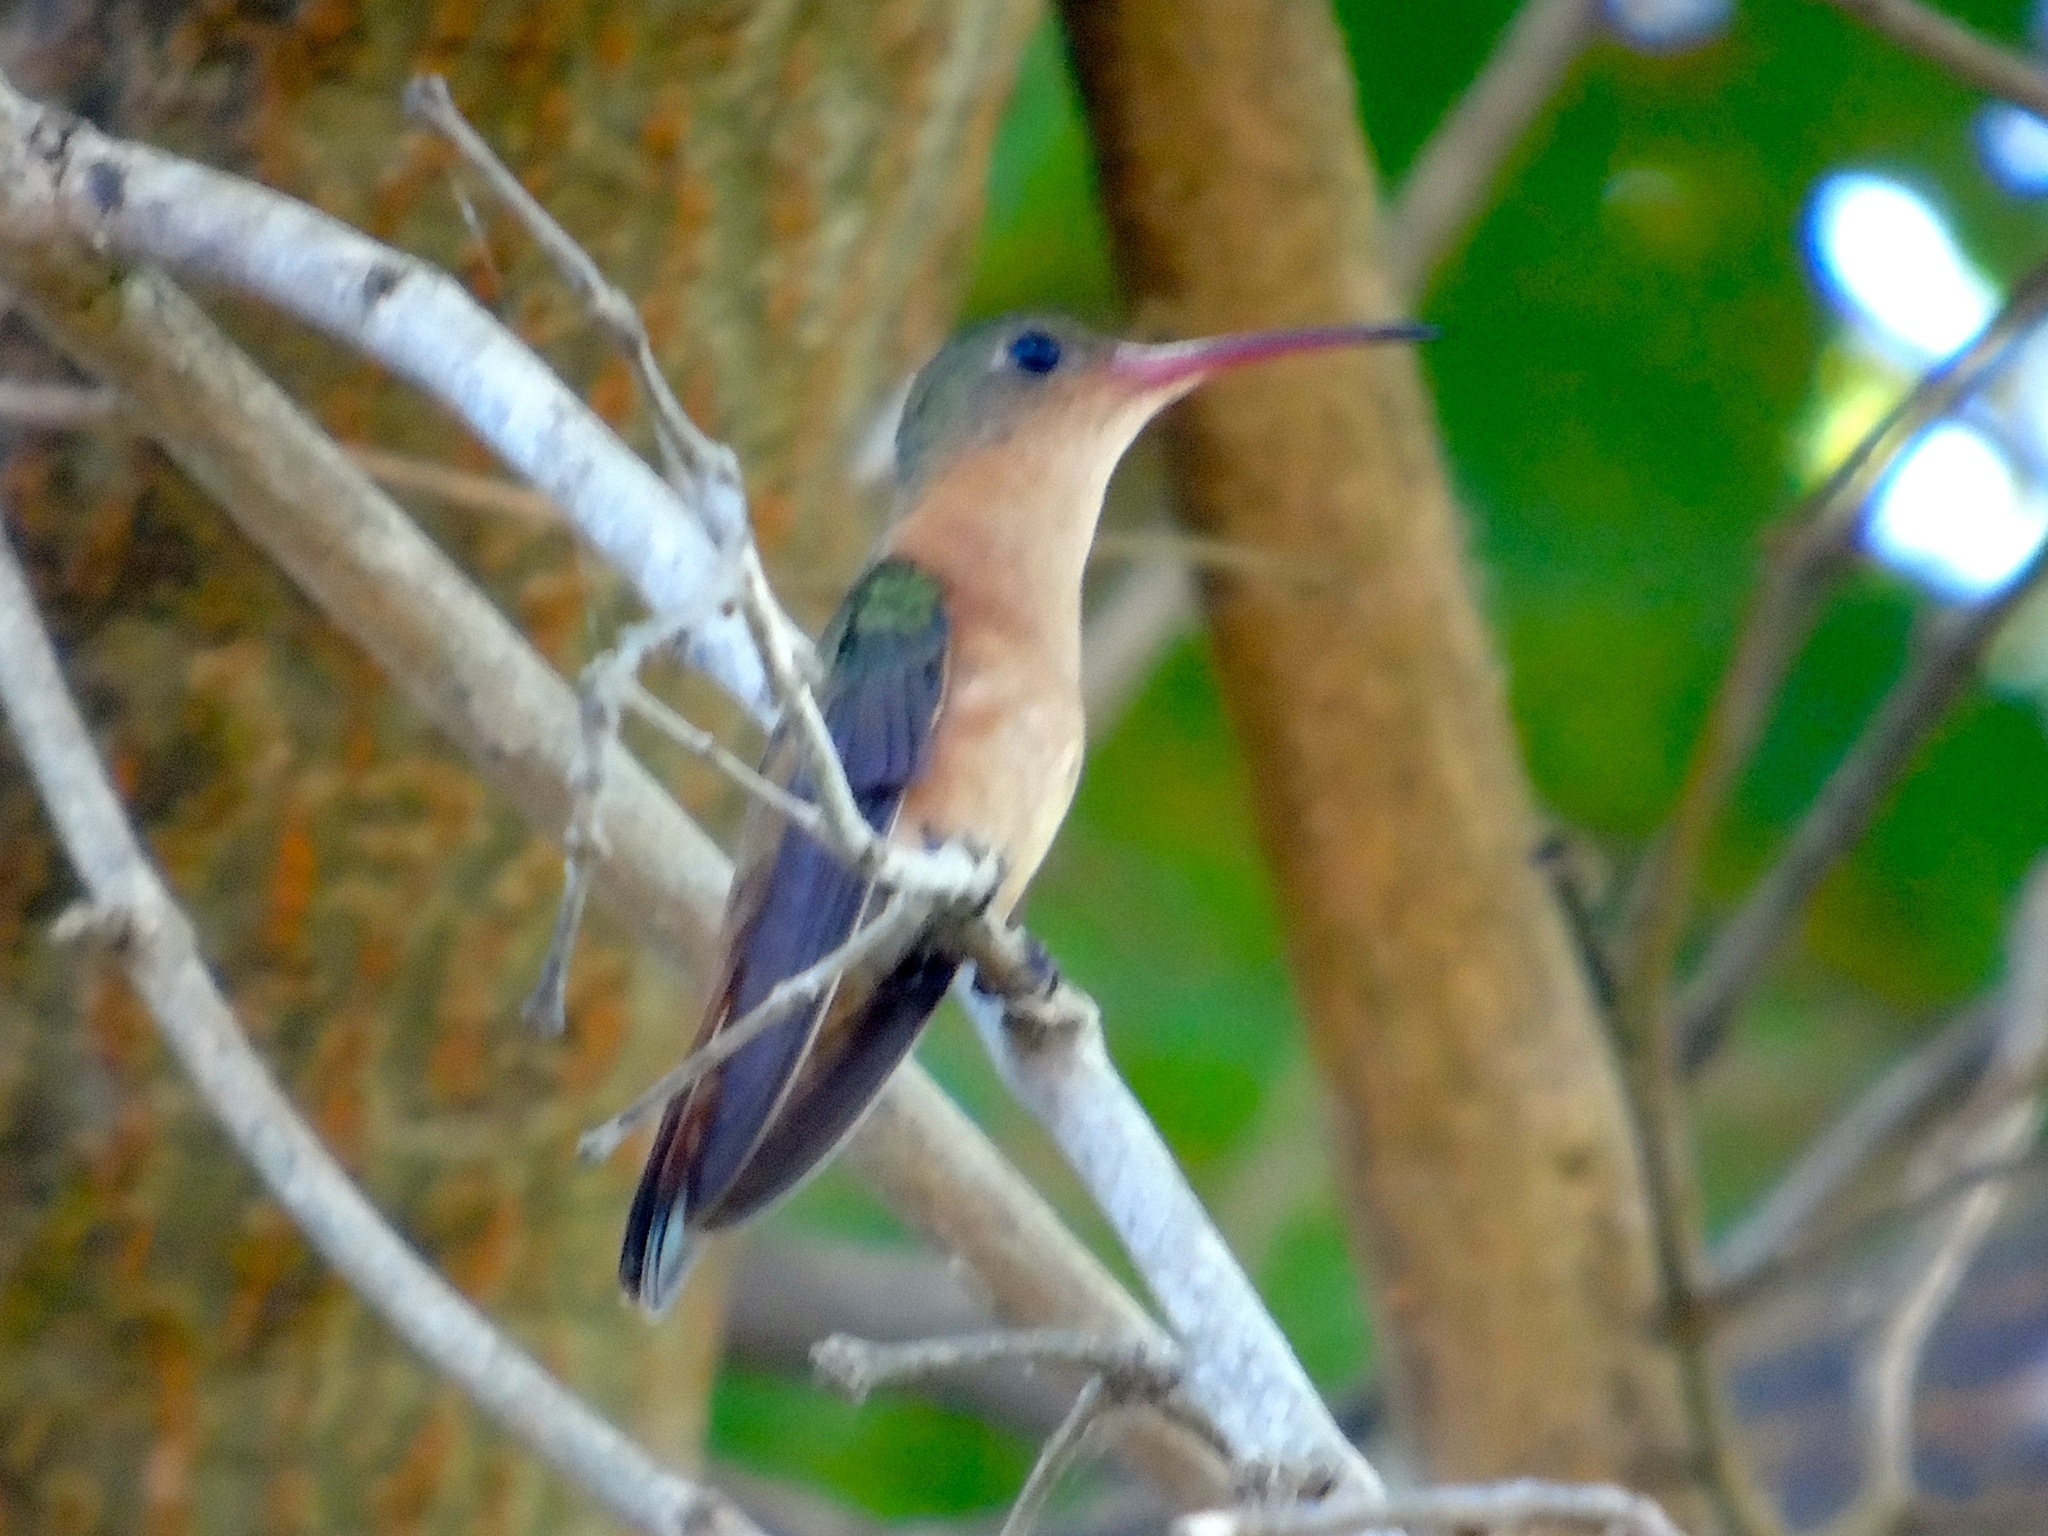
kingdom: Animalia
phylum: Chordata
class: Aves
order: Apodiformes
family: Trochilidae
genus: Amazilia
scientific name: Amazilia rutila
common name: Cinnamon hummingbird
